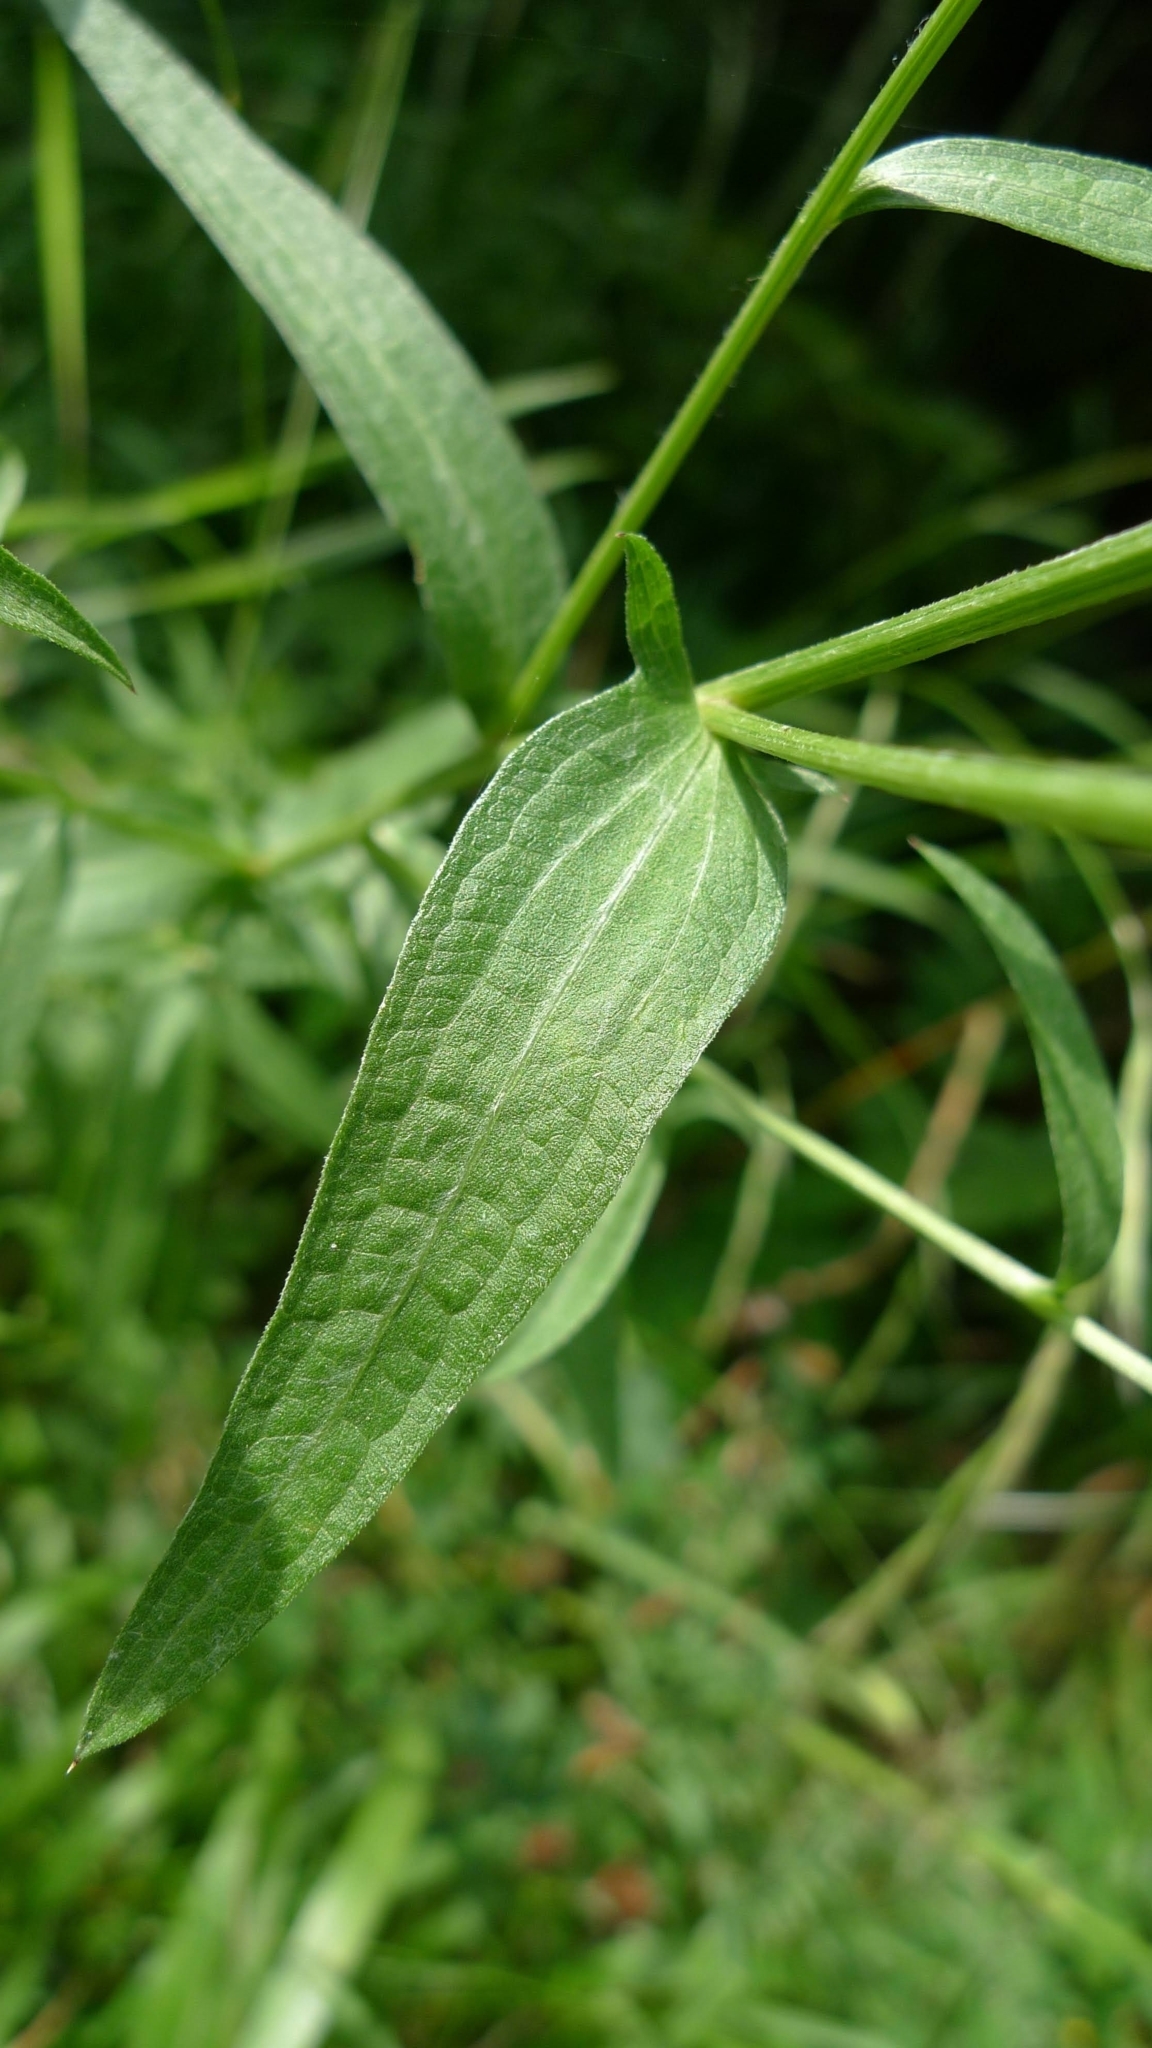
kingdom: Plantae
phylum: Tracheophyta
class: Magnoliopsida
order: Asterales
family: Asteraceae
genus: Centaurea
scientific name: Centaurea jacea
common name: Brown knapweed
